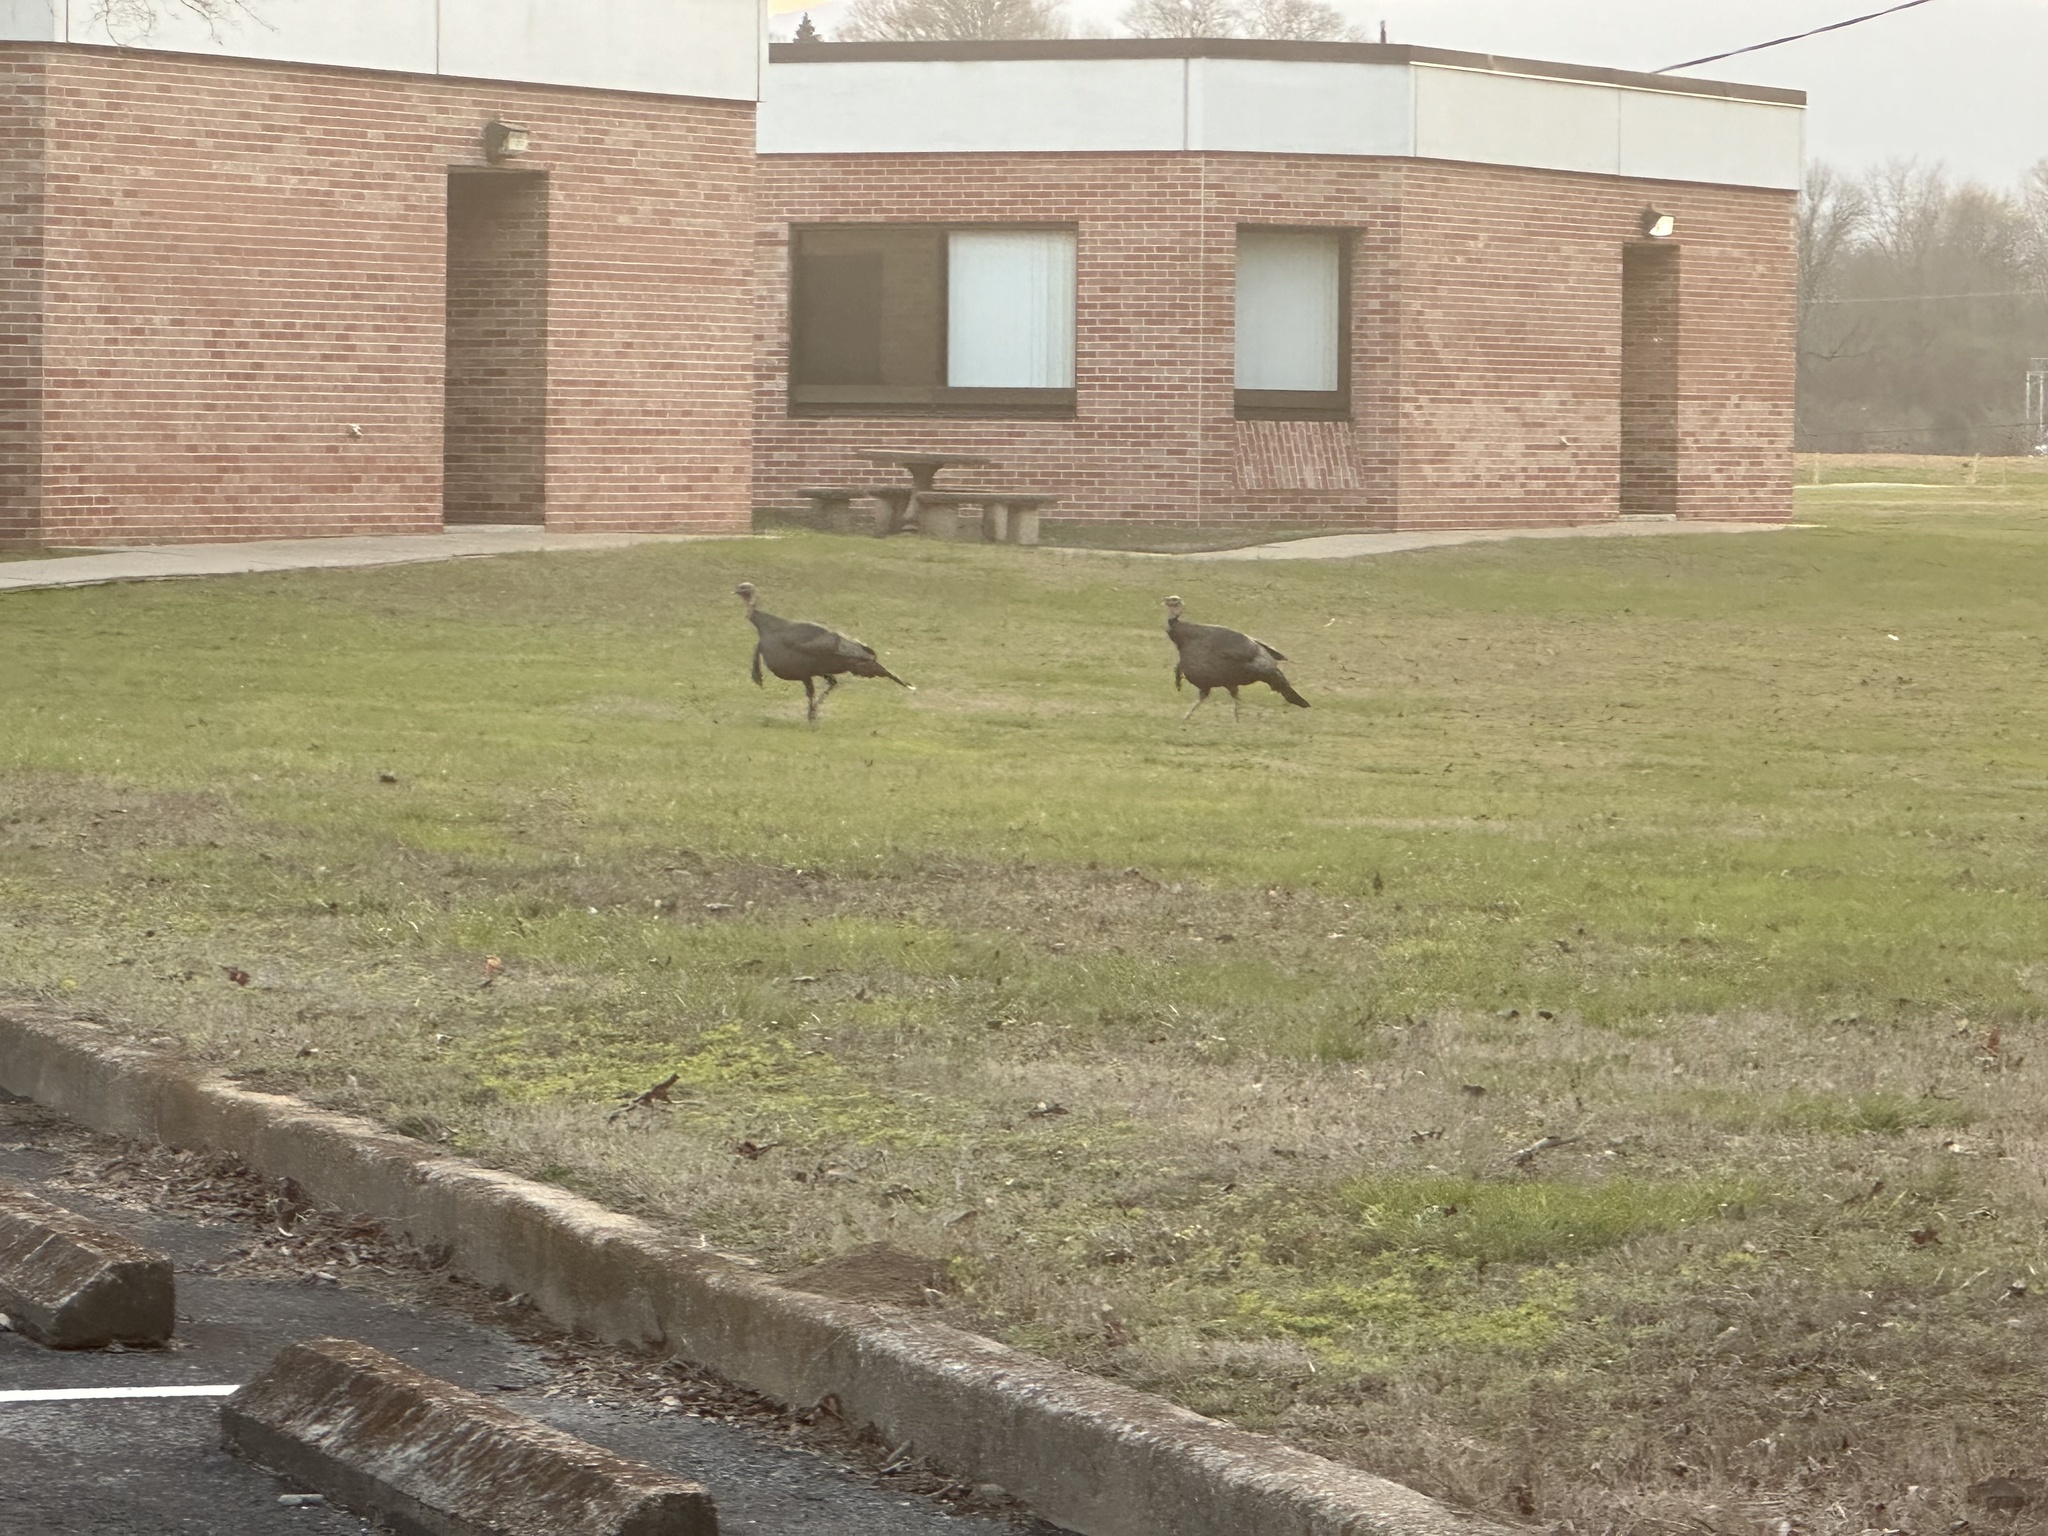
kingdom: Animalia
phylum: Chordata
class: Aves
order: Galliformes
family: Phasianidae
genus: Meleagris
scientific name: Meleagris gallopavo
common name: Wild turkey
